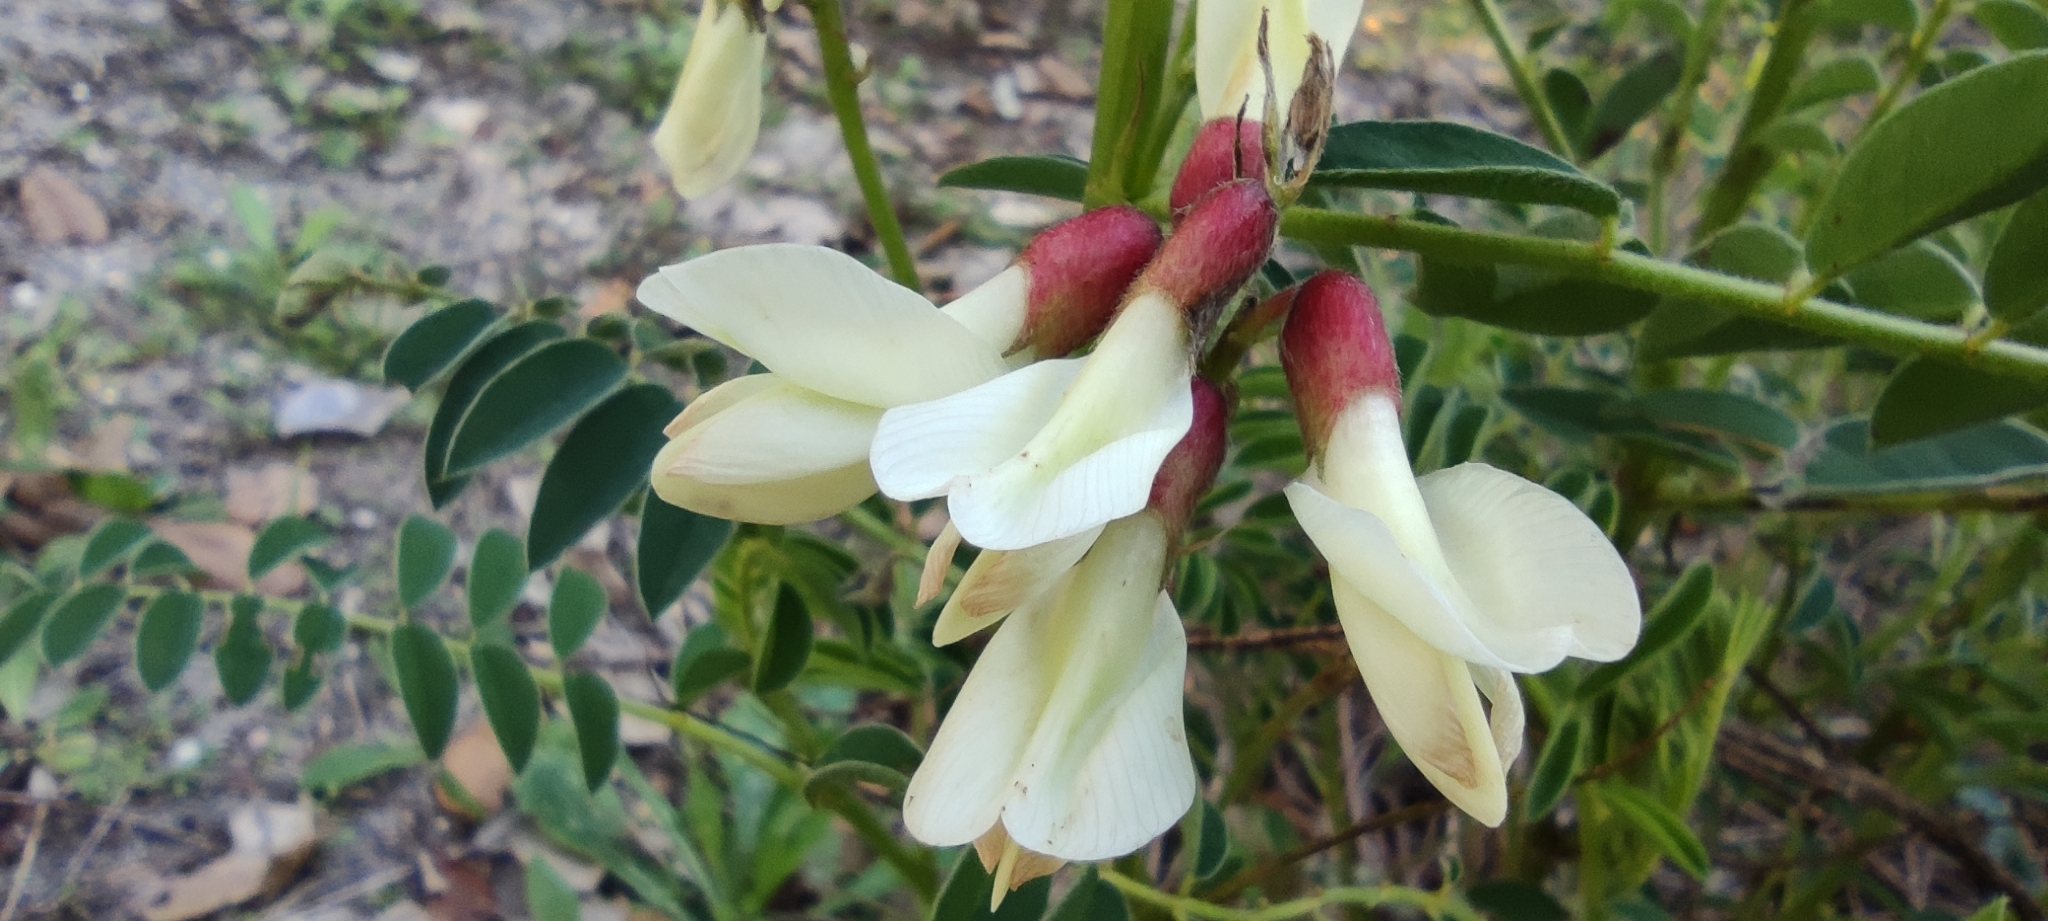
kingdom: Plantae
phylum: Tracheophyta
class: Magnoliopsida
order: Fabales
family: Fabaceae
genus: Erophaca
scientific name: Erophaca baetica
